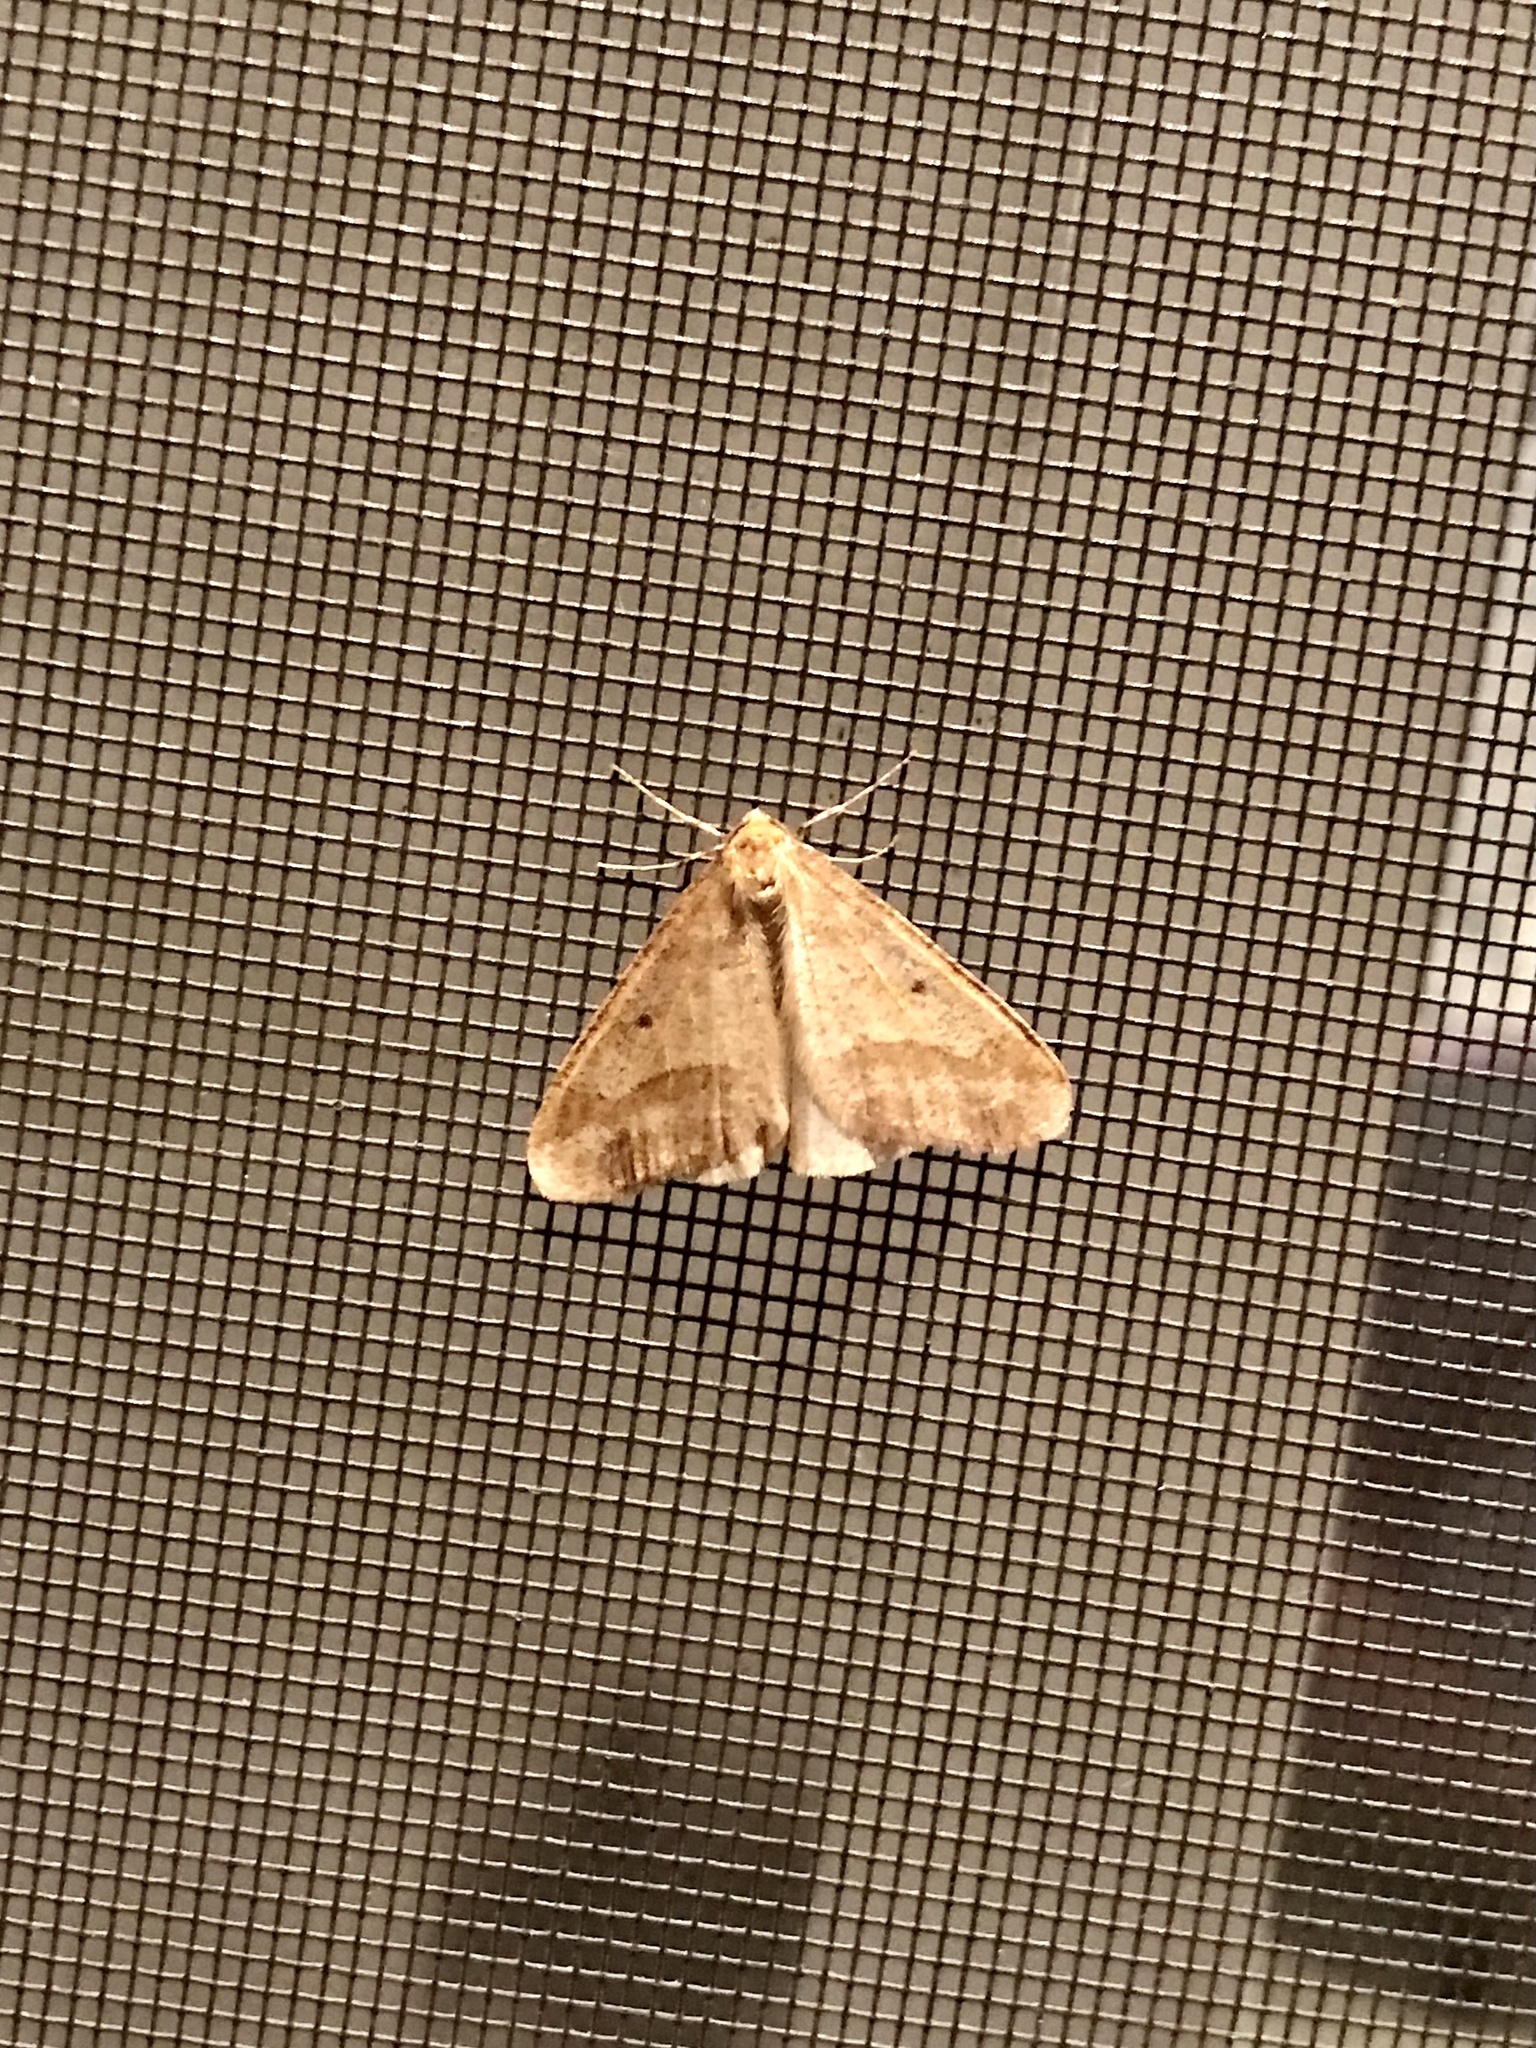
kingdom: Animalia
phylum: Arthropoda
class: Insecta
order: Lepidoptera
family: Geometridae
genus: Erannis
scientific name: Erannis tiliaria
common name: Linden looper
